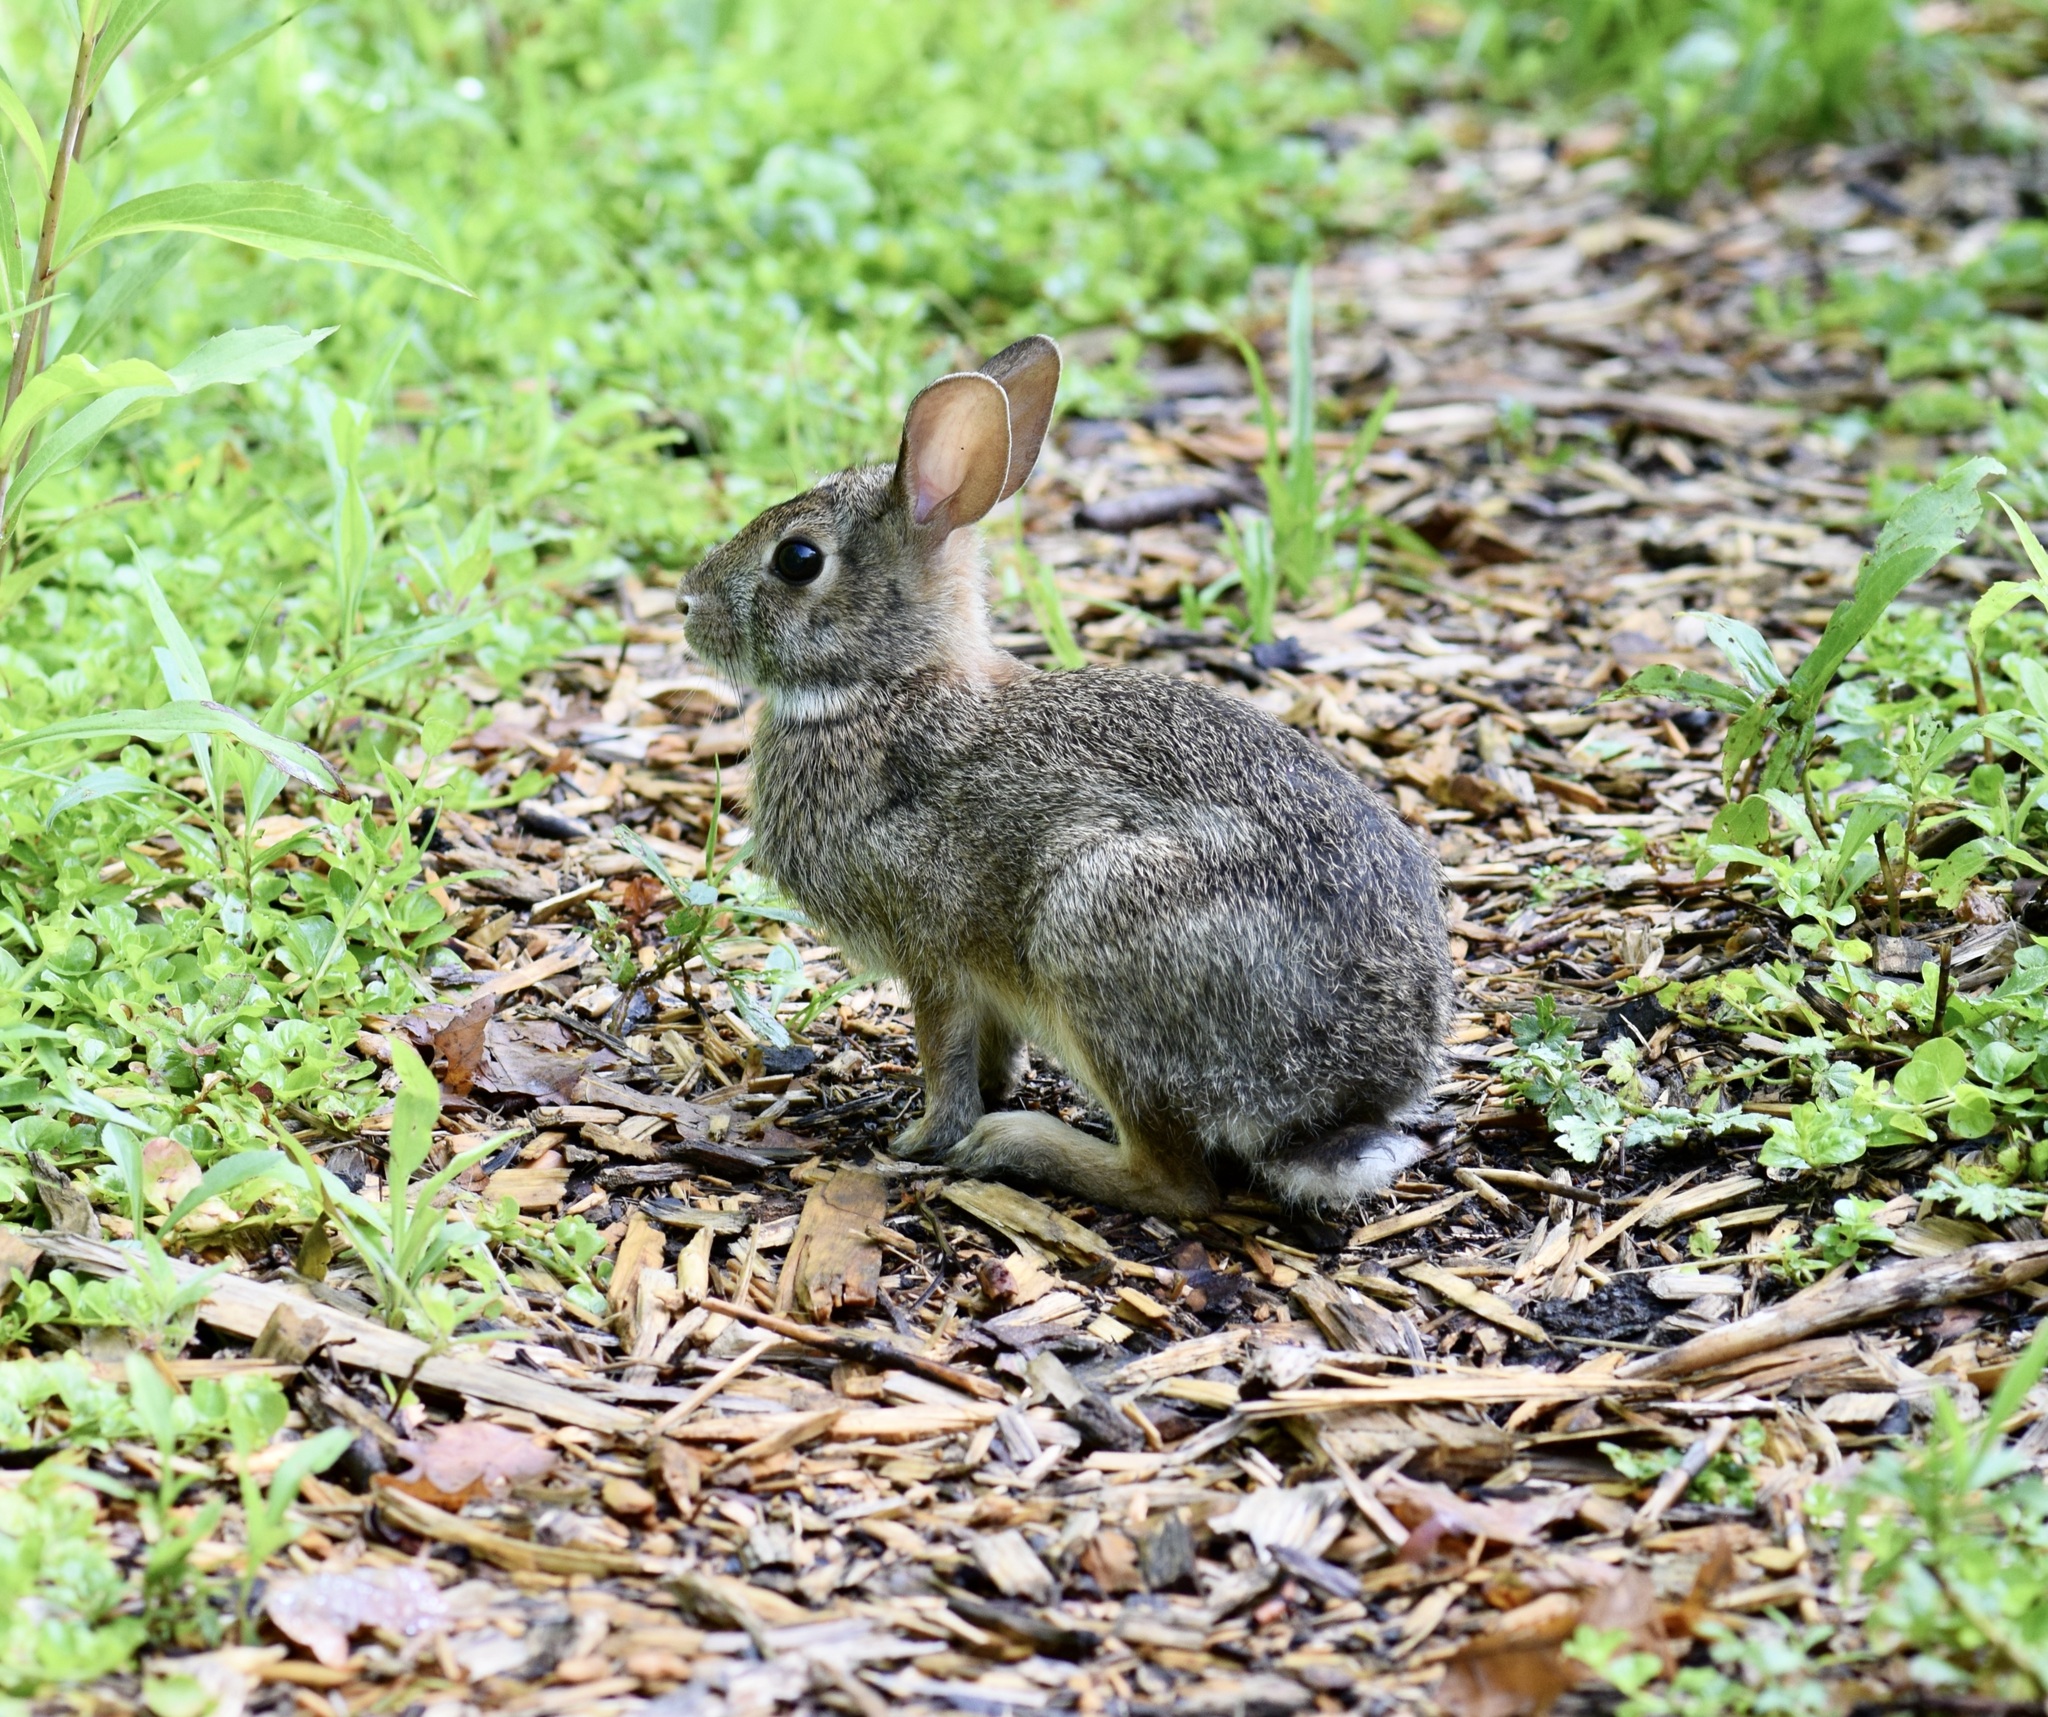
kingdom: Animalia
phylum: Chordata
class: Mammalia
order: Lagomorpha
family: Leporidae
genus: Sylvilagus
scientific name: Sylvilagus floridanus
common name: Eastern cottontail
